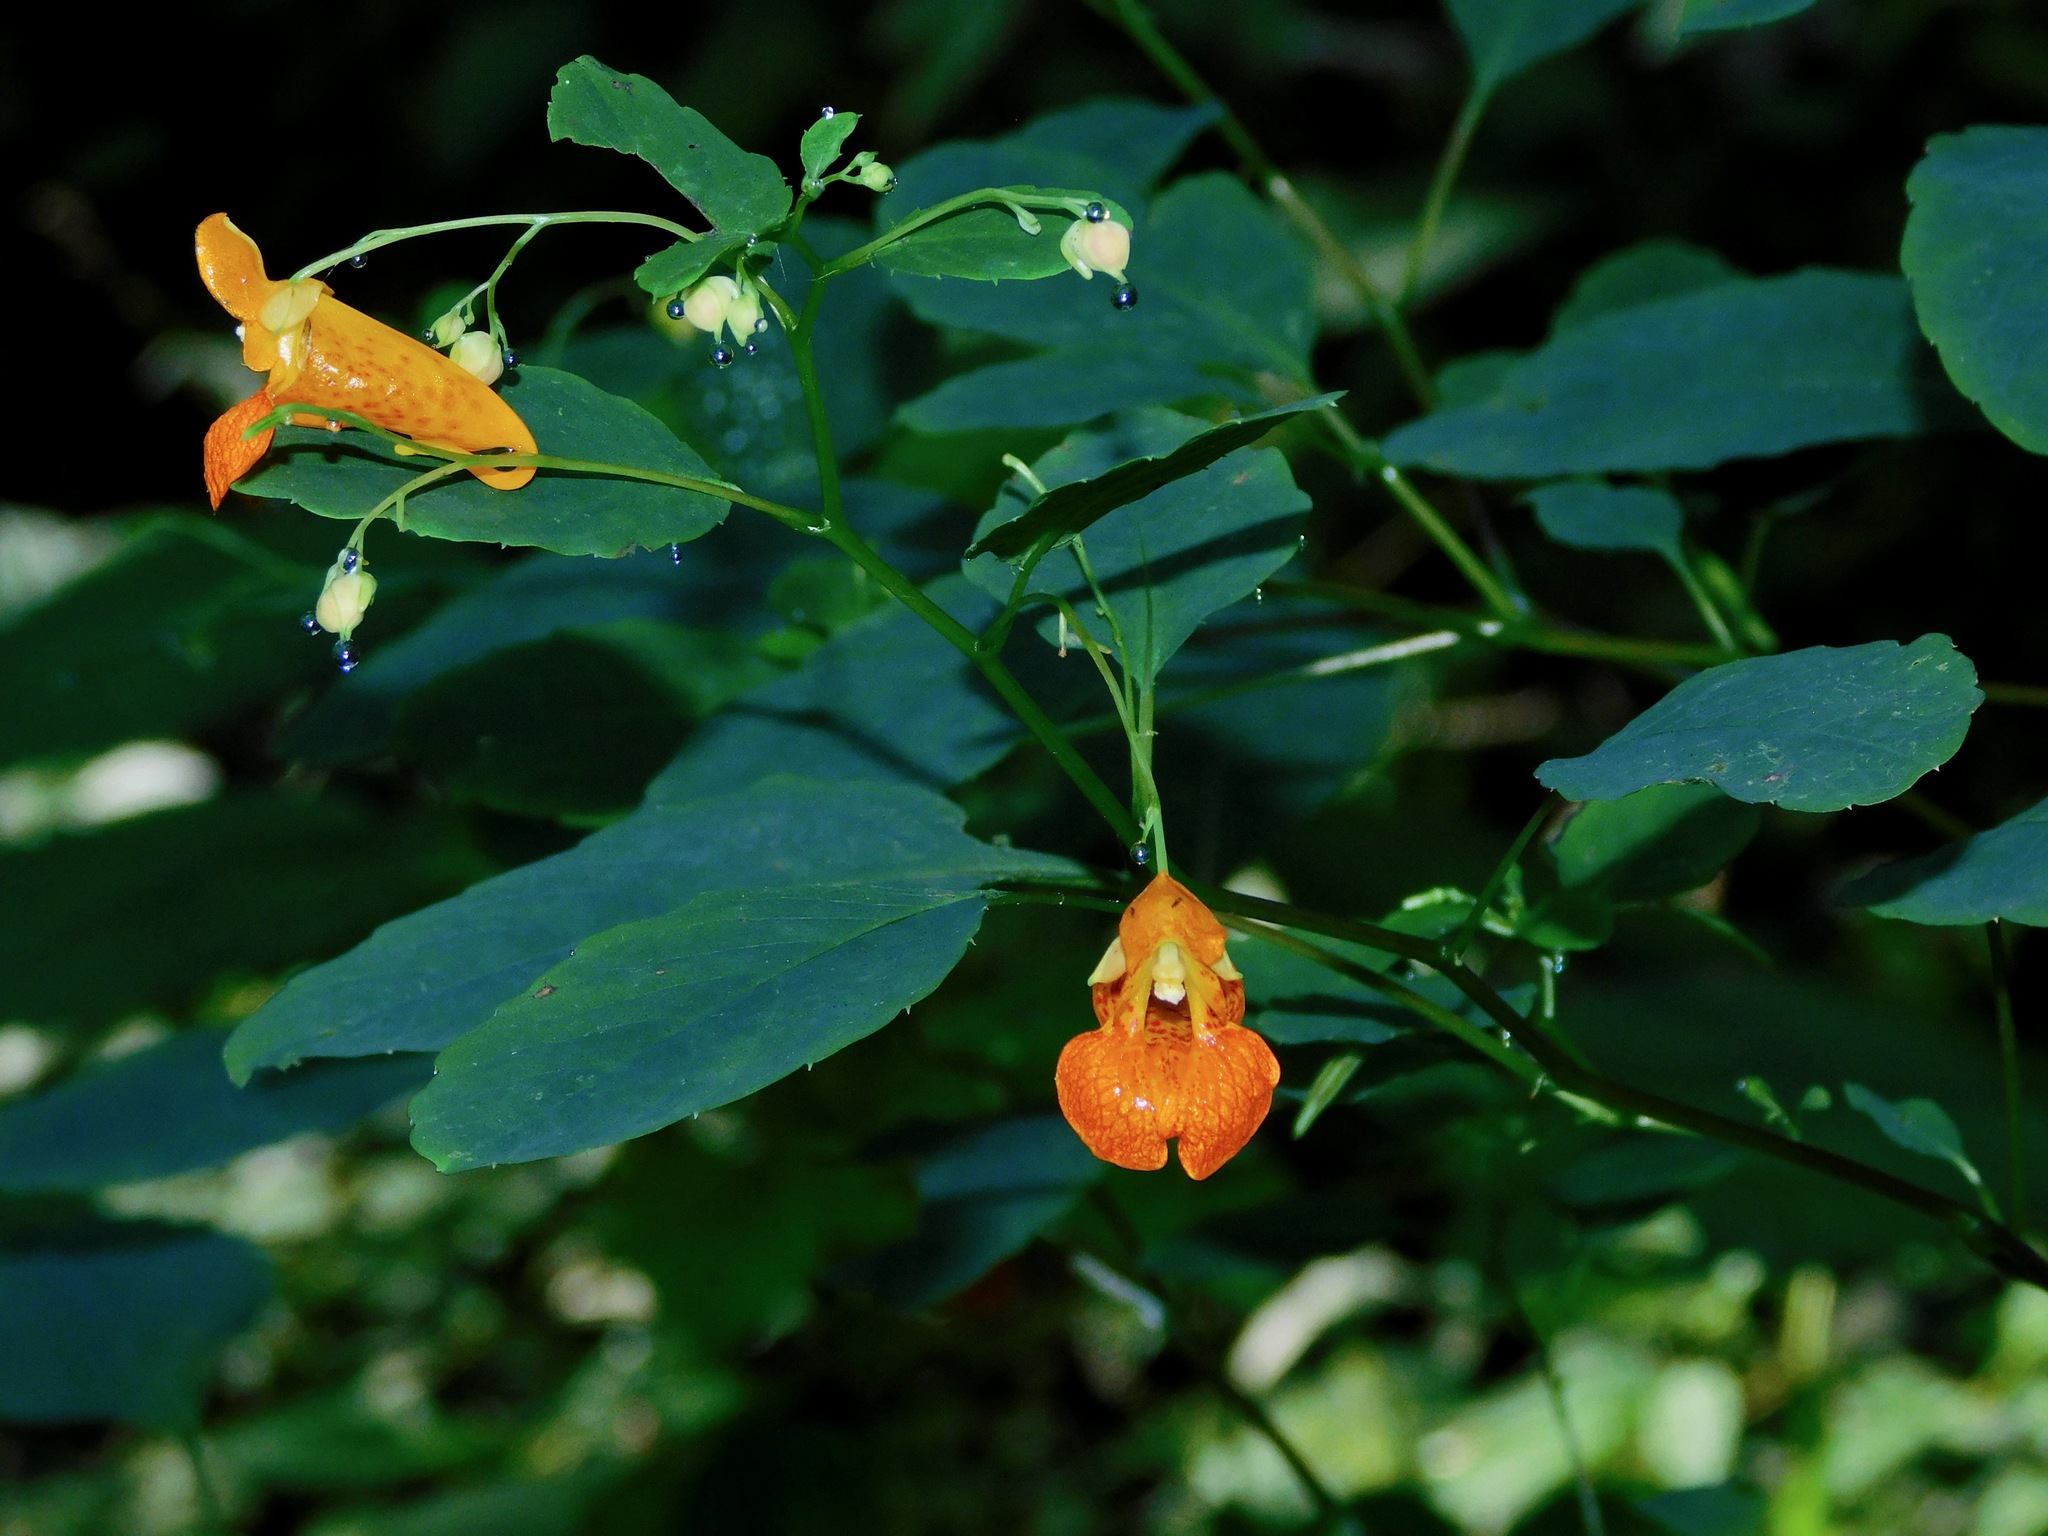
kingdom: Plantae
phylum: Tracheophyta
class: Magnoliopsida
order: Ericales
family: Balsaminaceae
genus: Impatiens
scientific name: Impatiens capensis
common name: Orange balsam
